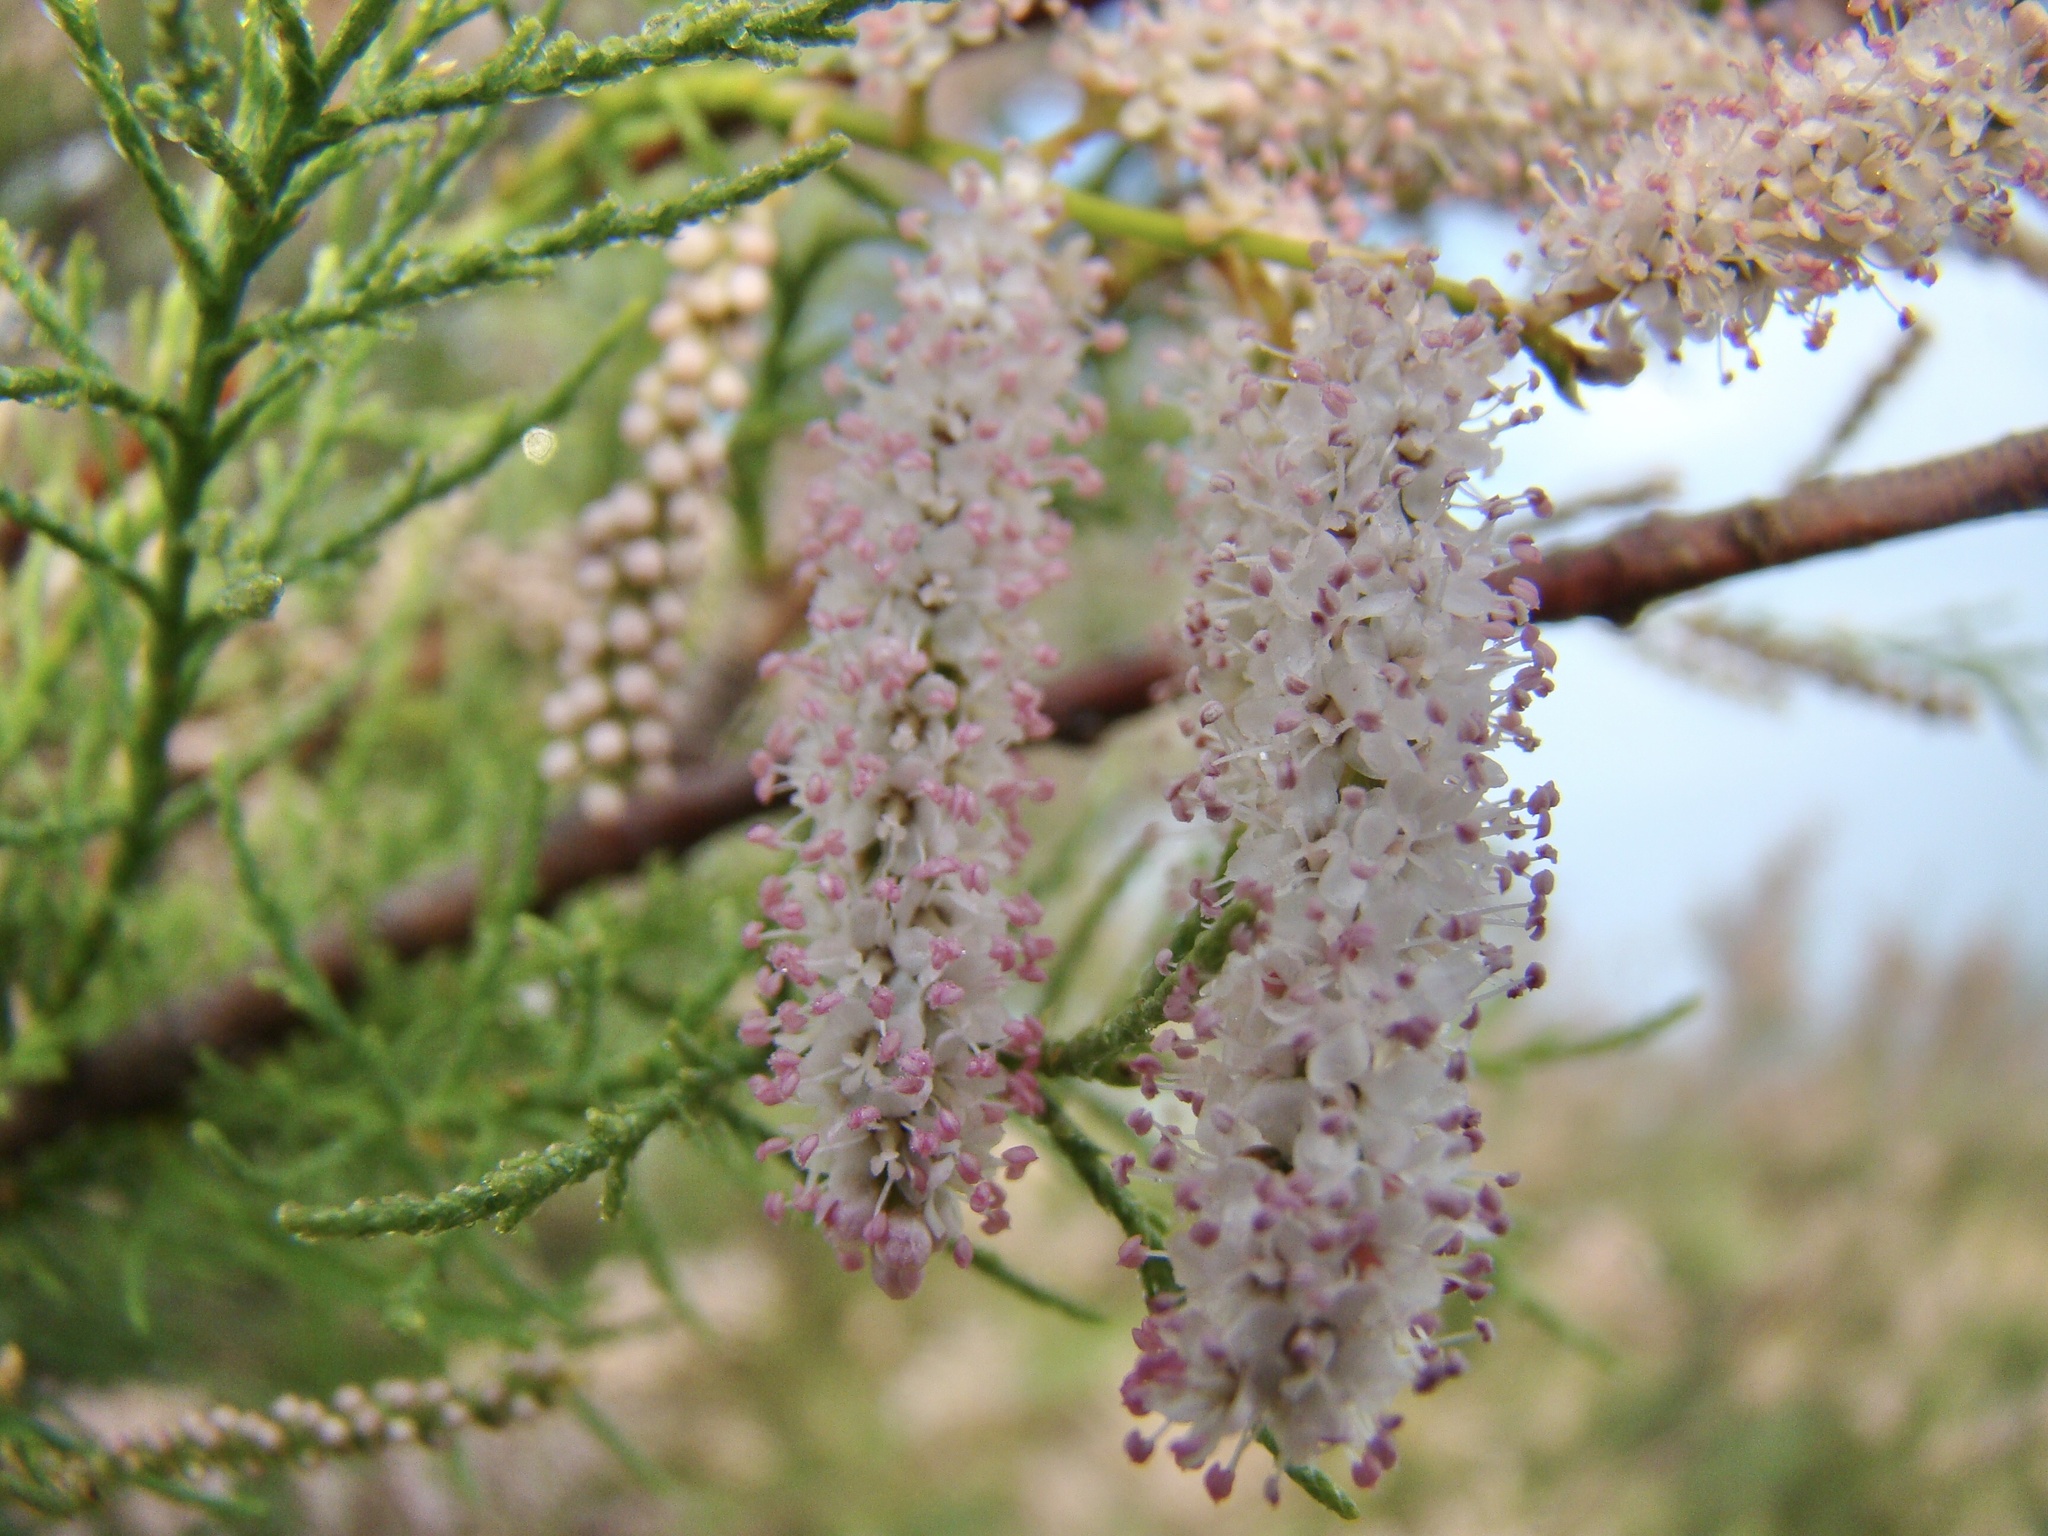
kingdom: Plantae
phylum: Tracheophyta
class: Magnoliopsida
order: Caryophyllales
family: Tamaricaceae
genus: Tamarix
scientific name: Tamarix gallica
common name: Tamarisk
